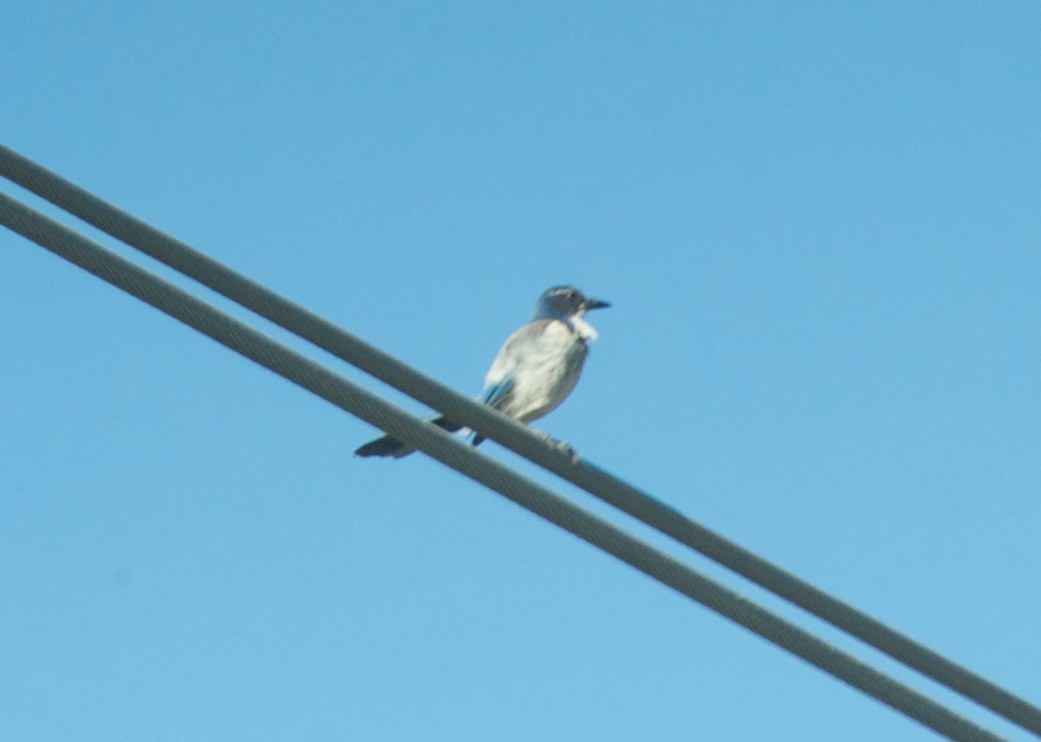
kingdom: Animalia
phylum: Chordata
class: Aves
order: Passeriformes
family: Corvidae
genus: Aphelocoma
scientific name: Aphelocoma californica
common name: California scrub-jay
